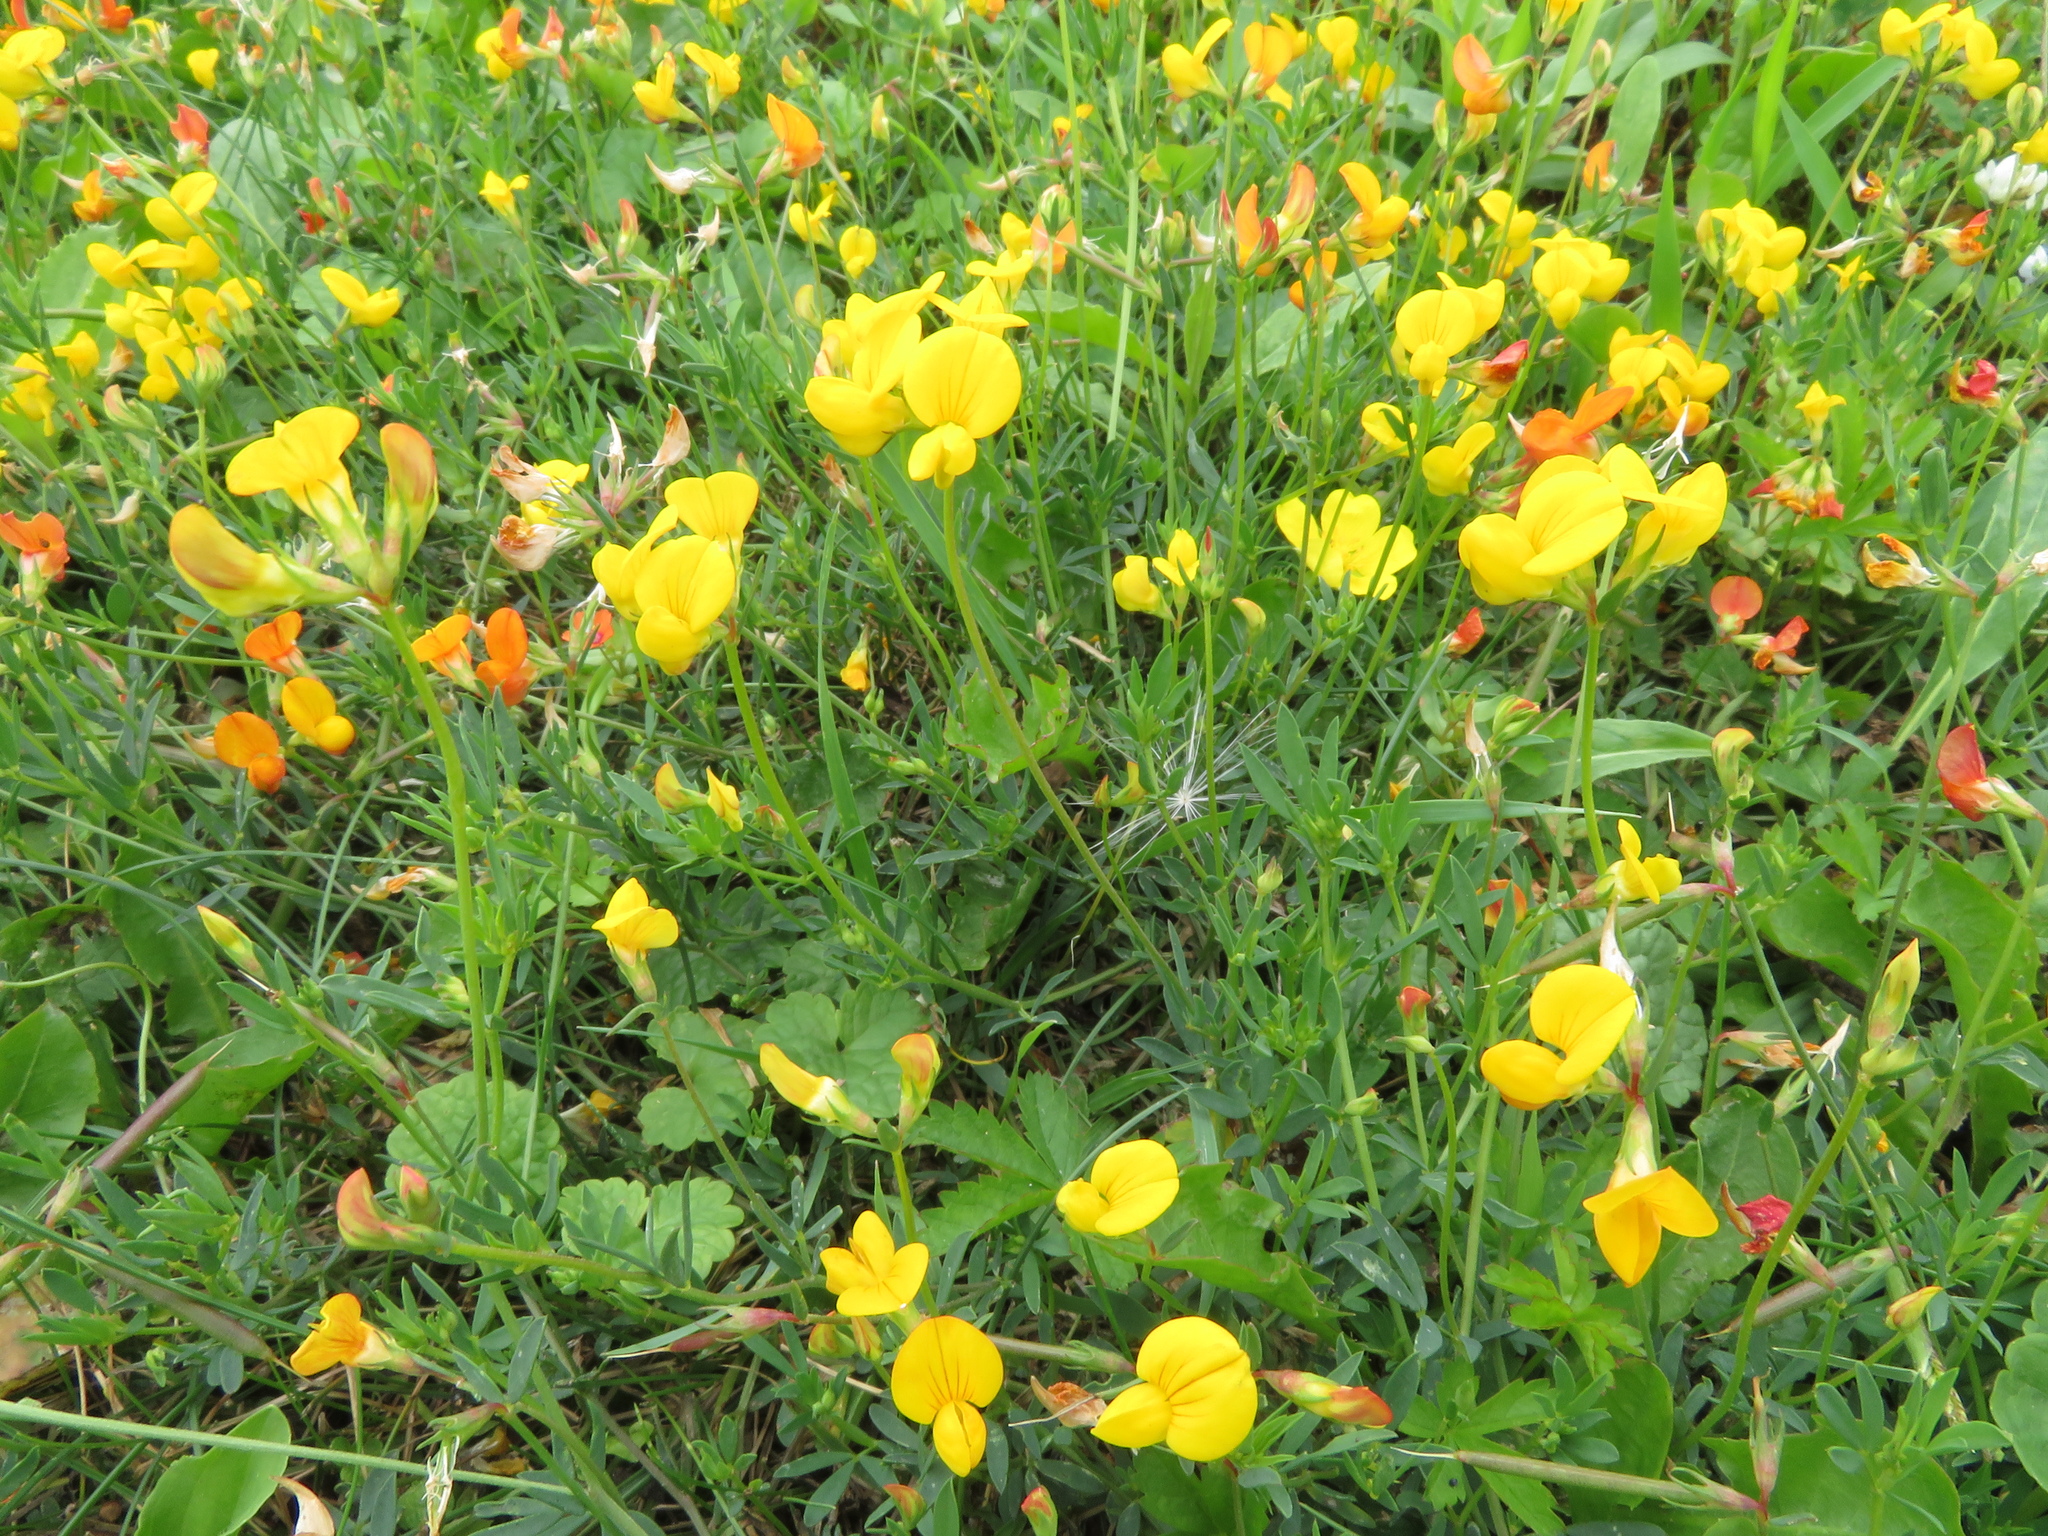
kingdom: Plantae
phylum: Tracheophyta
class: Magnoliopsida
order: Fabales
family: Fabaceae
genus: Lotus
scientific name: Lotus tenuis
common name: Narrow-leaved bird's-foot-trefoil
